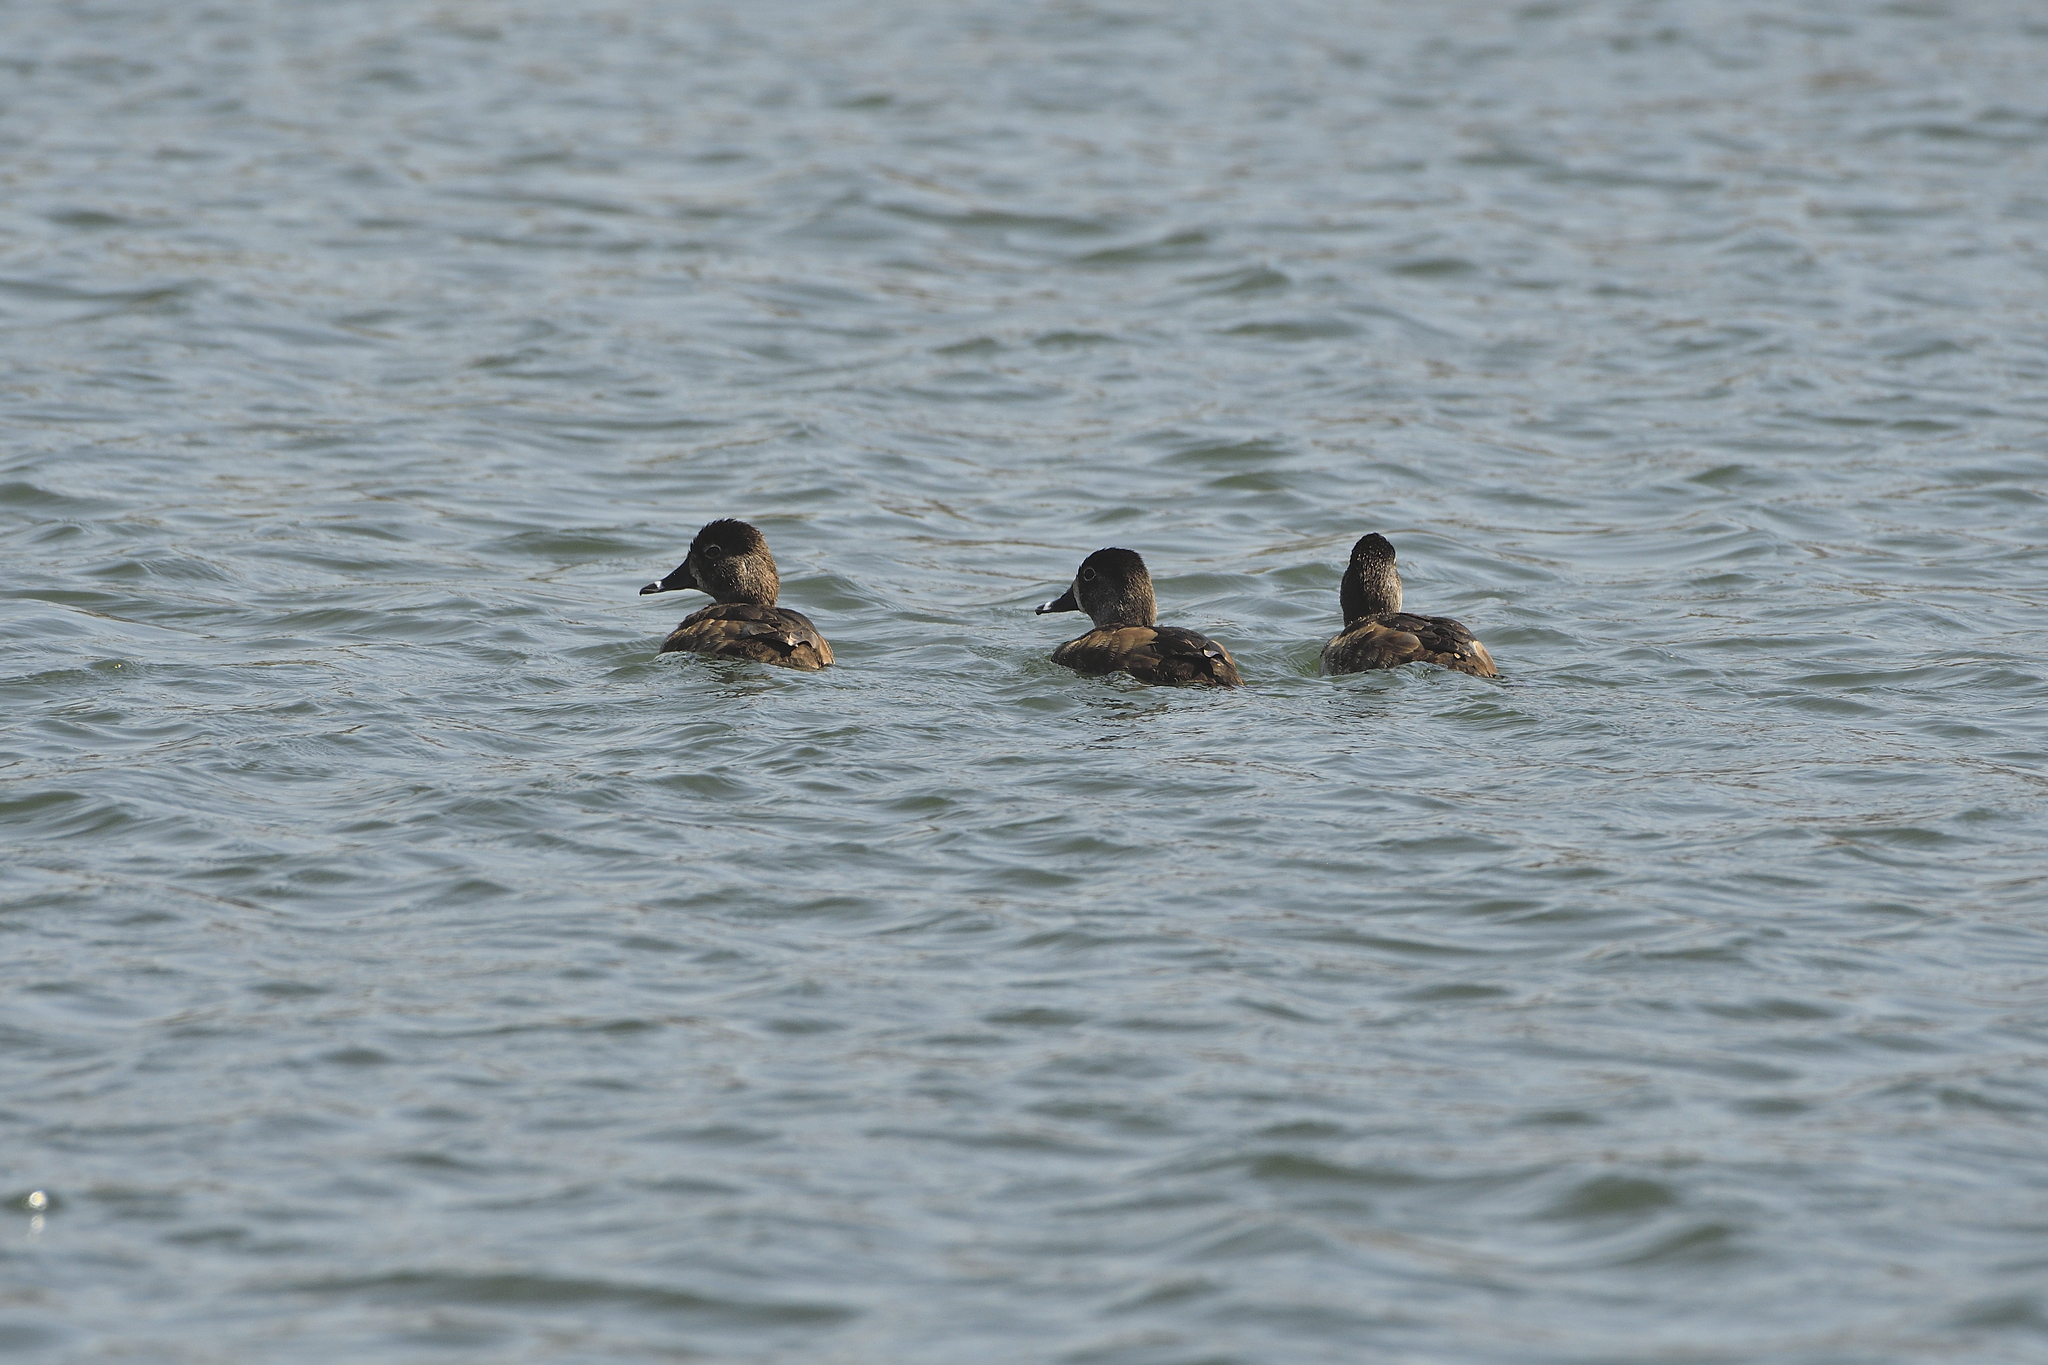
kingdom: Animalia
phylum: Chordata
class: Aves
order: Anseriformes
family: Anatidae
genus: Aythya
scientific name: Aythya collaris
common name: Ring-necked duck
